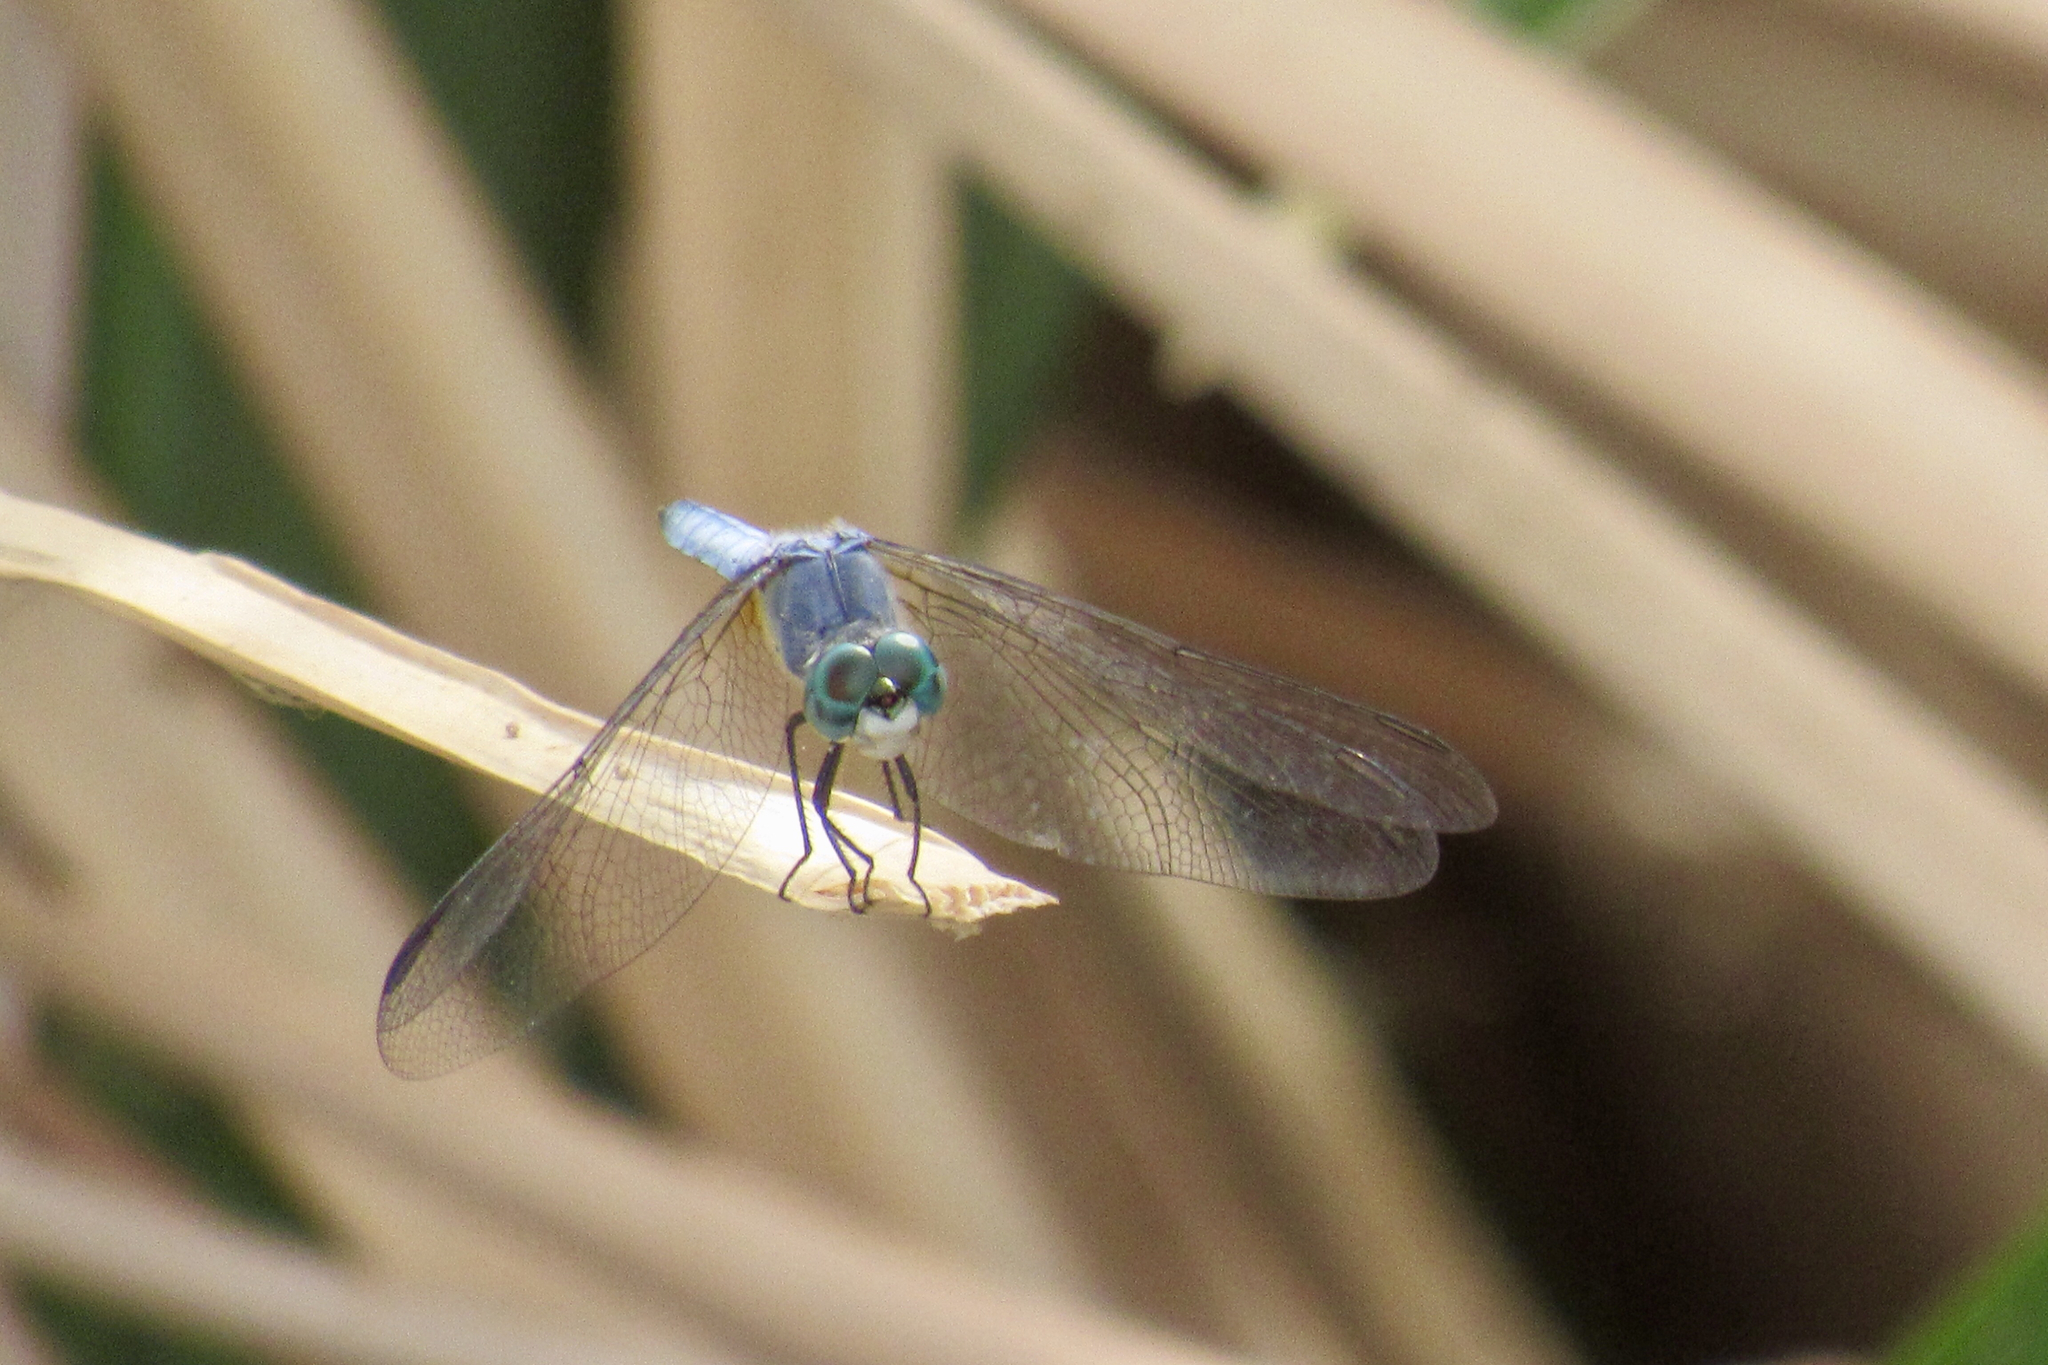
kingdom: Animalia
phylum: Arthropoda
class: Insecta
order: Odonata
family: Libellulidae
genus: Pachydiplax
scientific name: Pachydiplax longipennis
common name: Blue dasher
